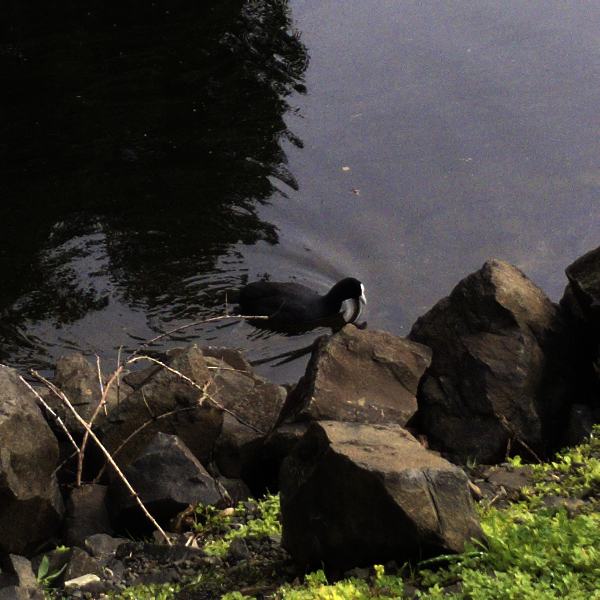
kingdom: Animalia
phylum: Chordata
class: Aves
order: Gruiformes
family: Rallidae
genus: Fulica
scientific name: Fulica atra
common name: Eurasian coot
